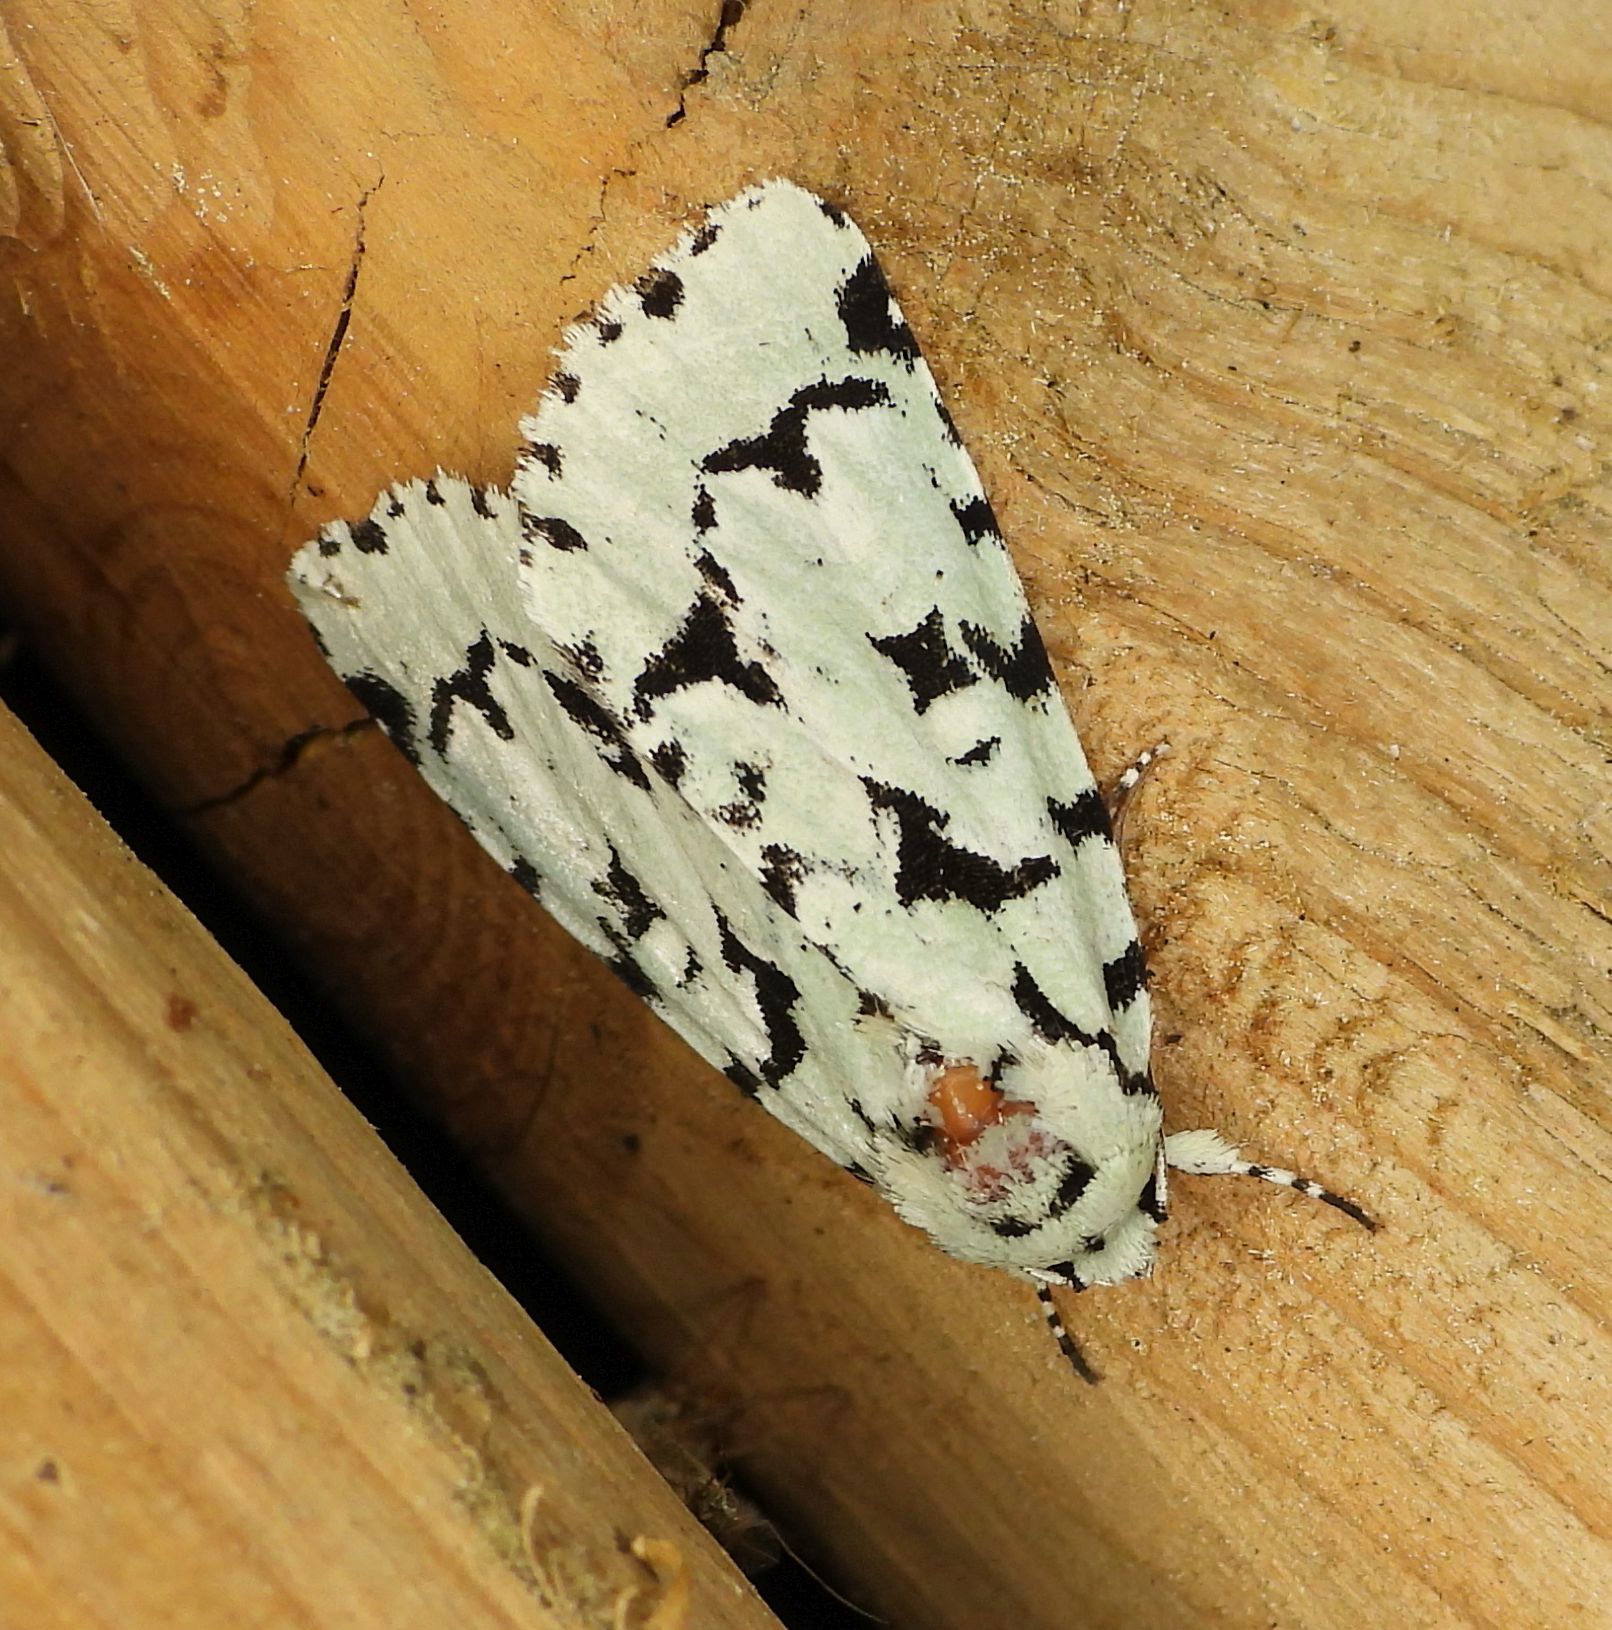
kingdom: Animalia
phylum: Arthropoda
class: Insecta
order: Lepidoptera
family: Noctuidae
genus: Acronicta
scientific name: Acronicta fallax
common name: Green marvel
